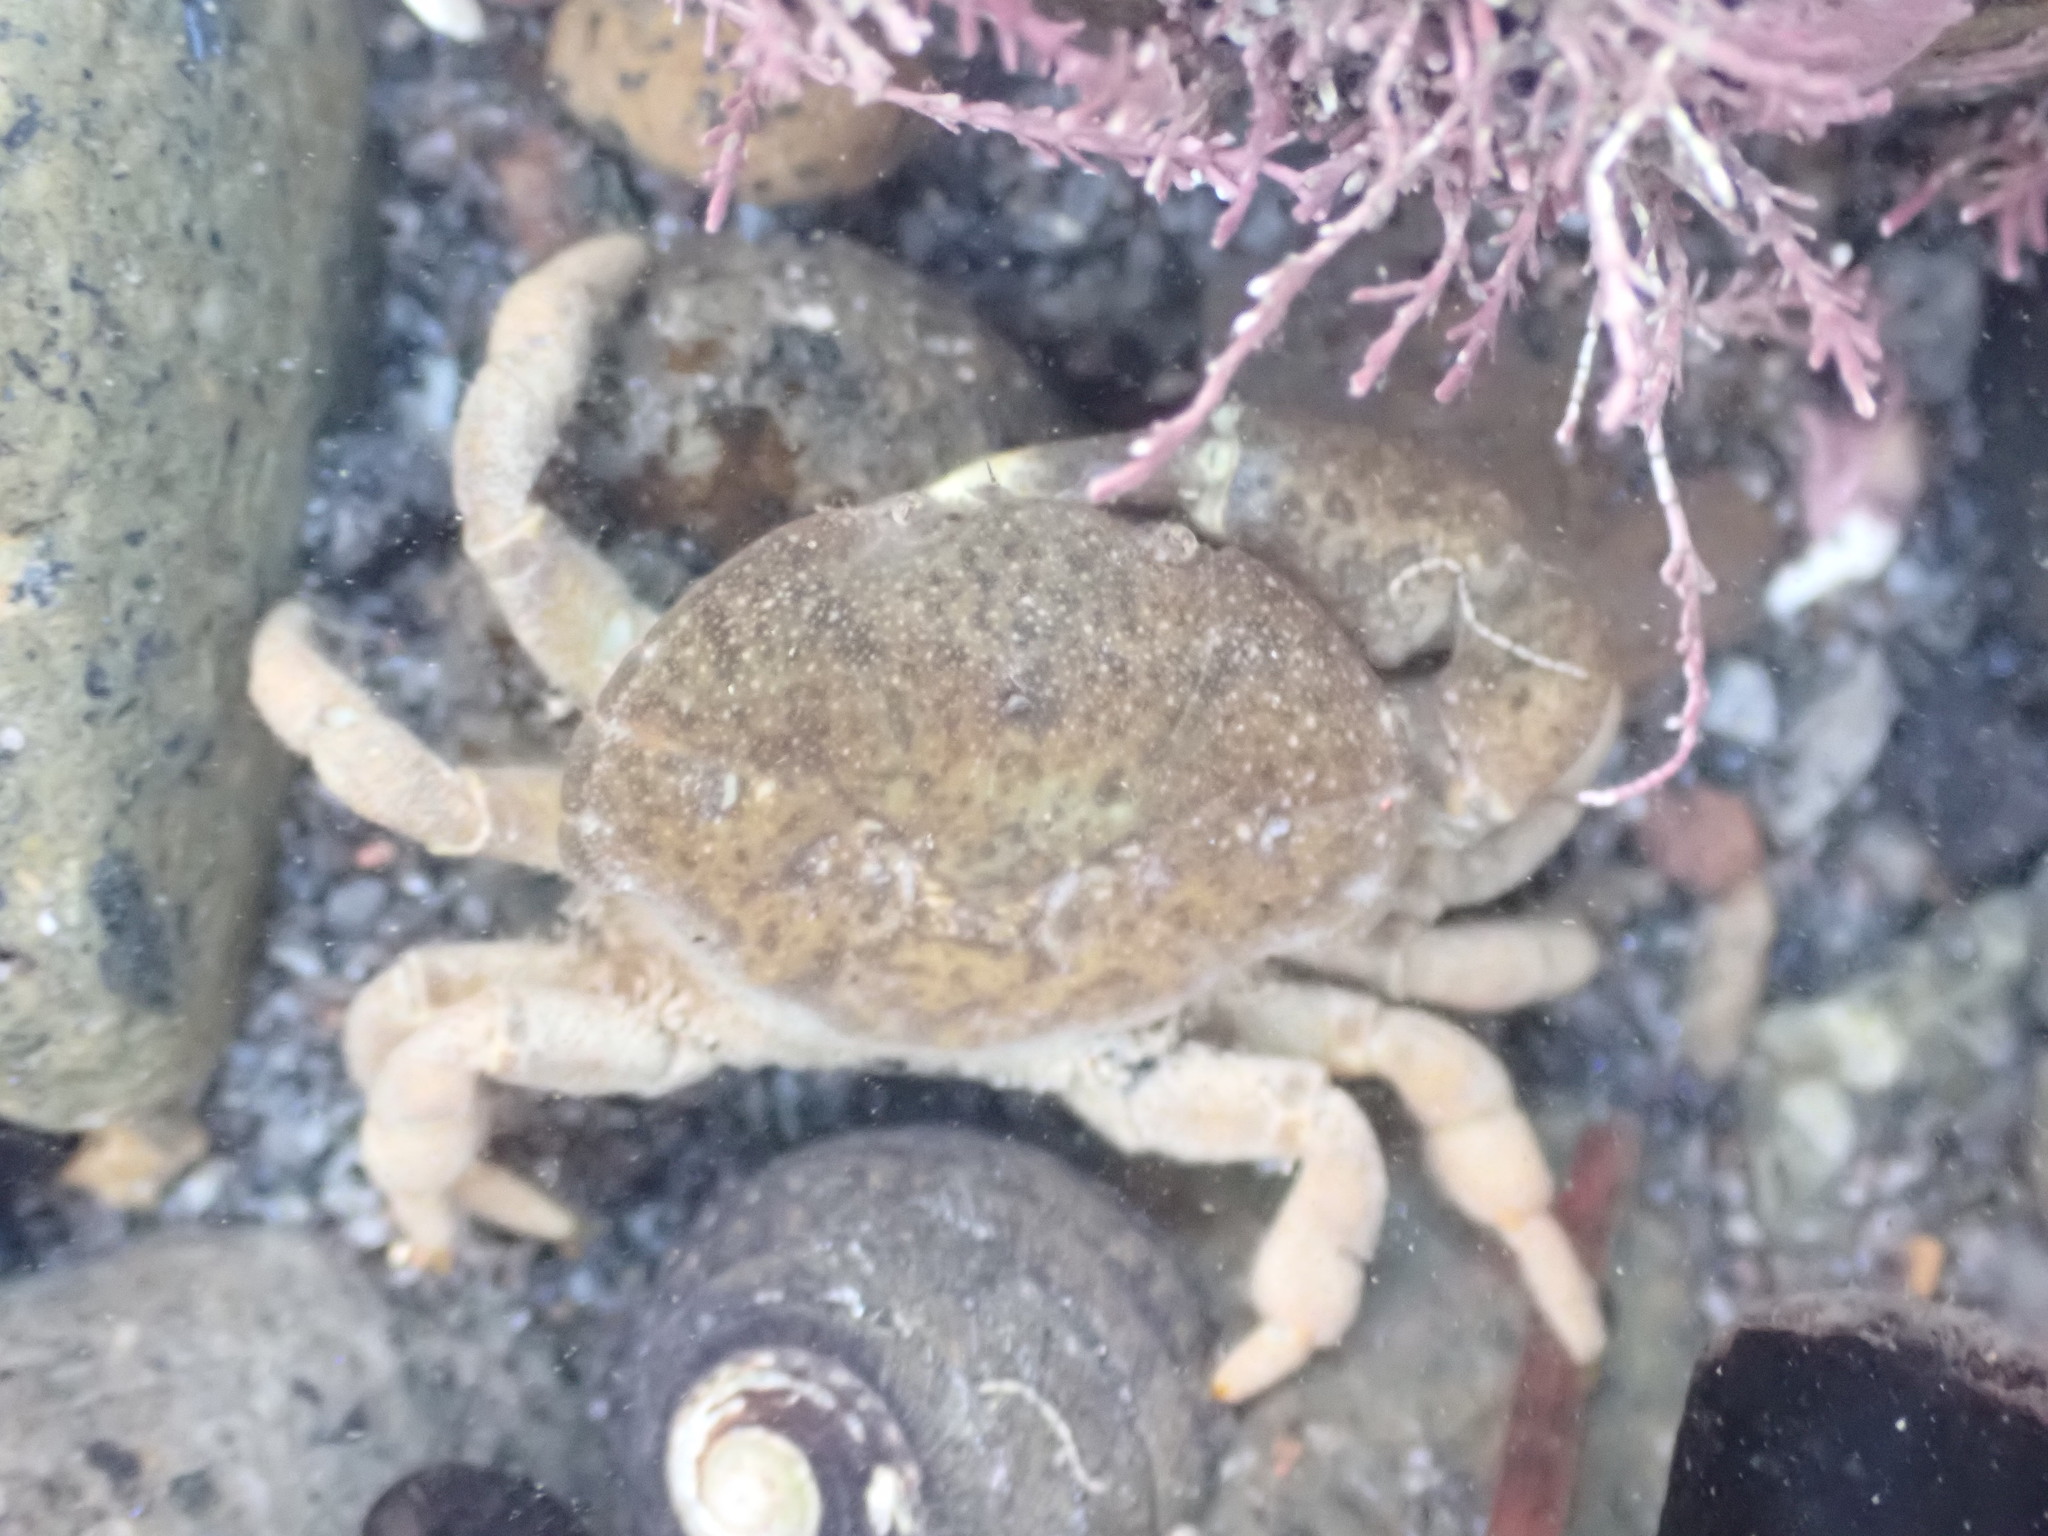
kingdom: Animalia
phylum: Arthropoda
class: Malacostraca
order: Decapoda
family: Heteroziidae
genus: Heterozius
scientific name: Heterozius rotundifrons
